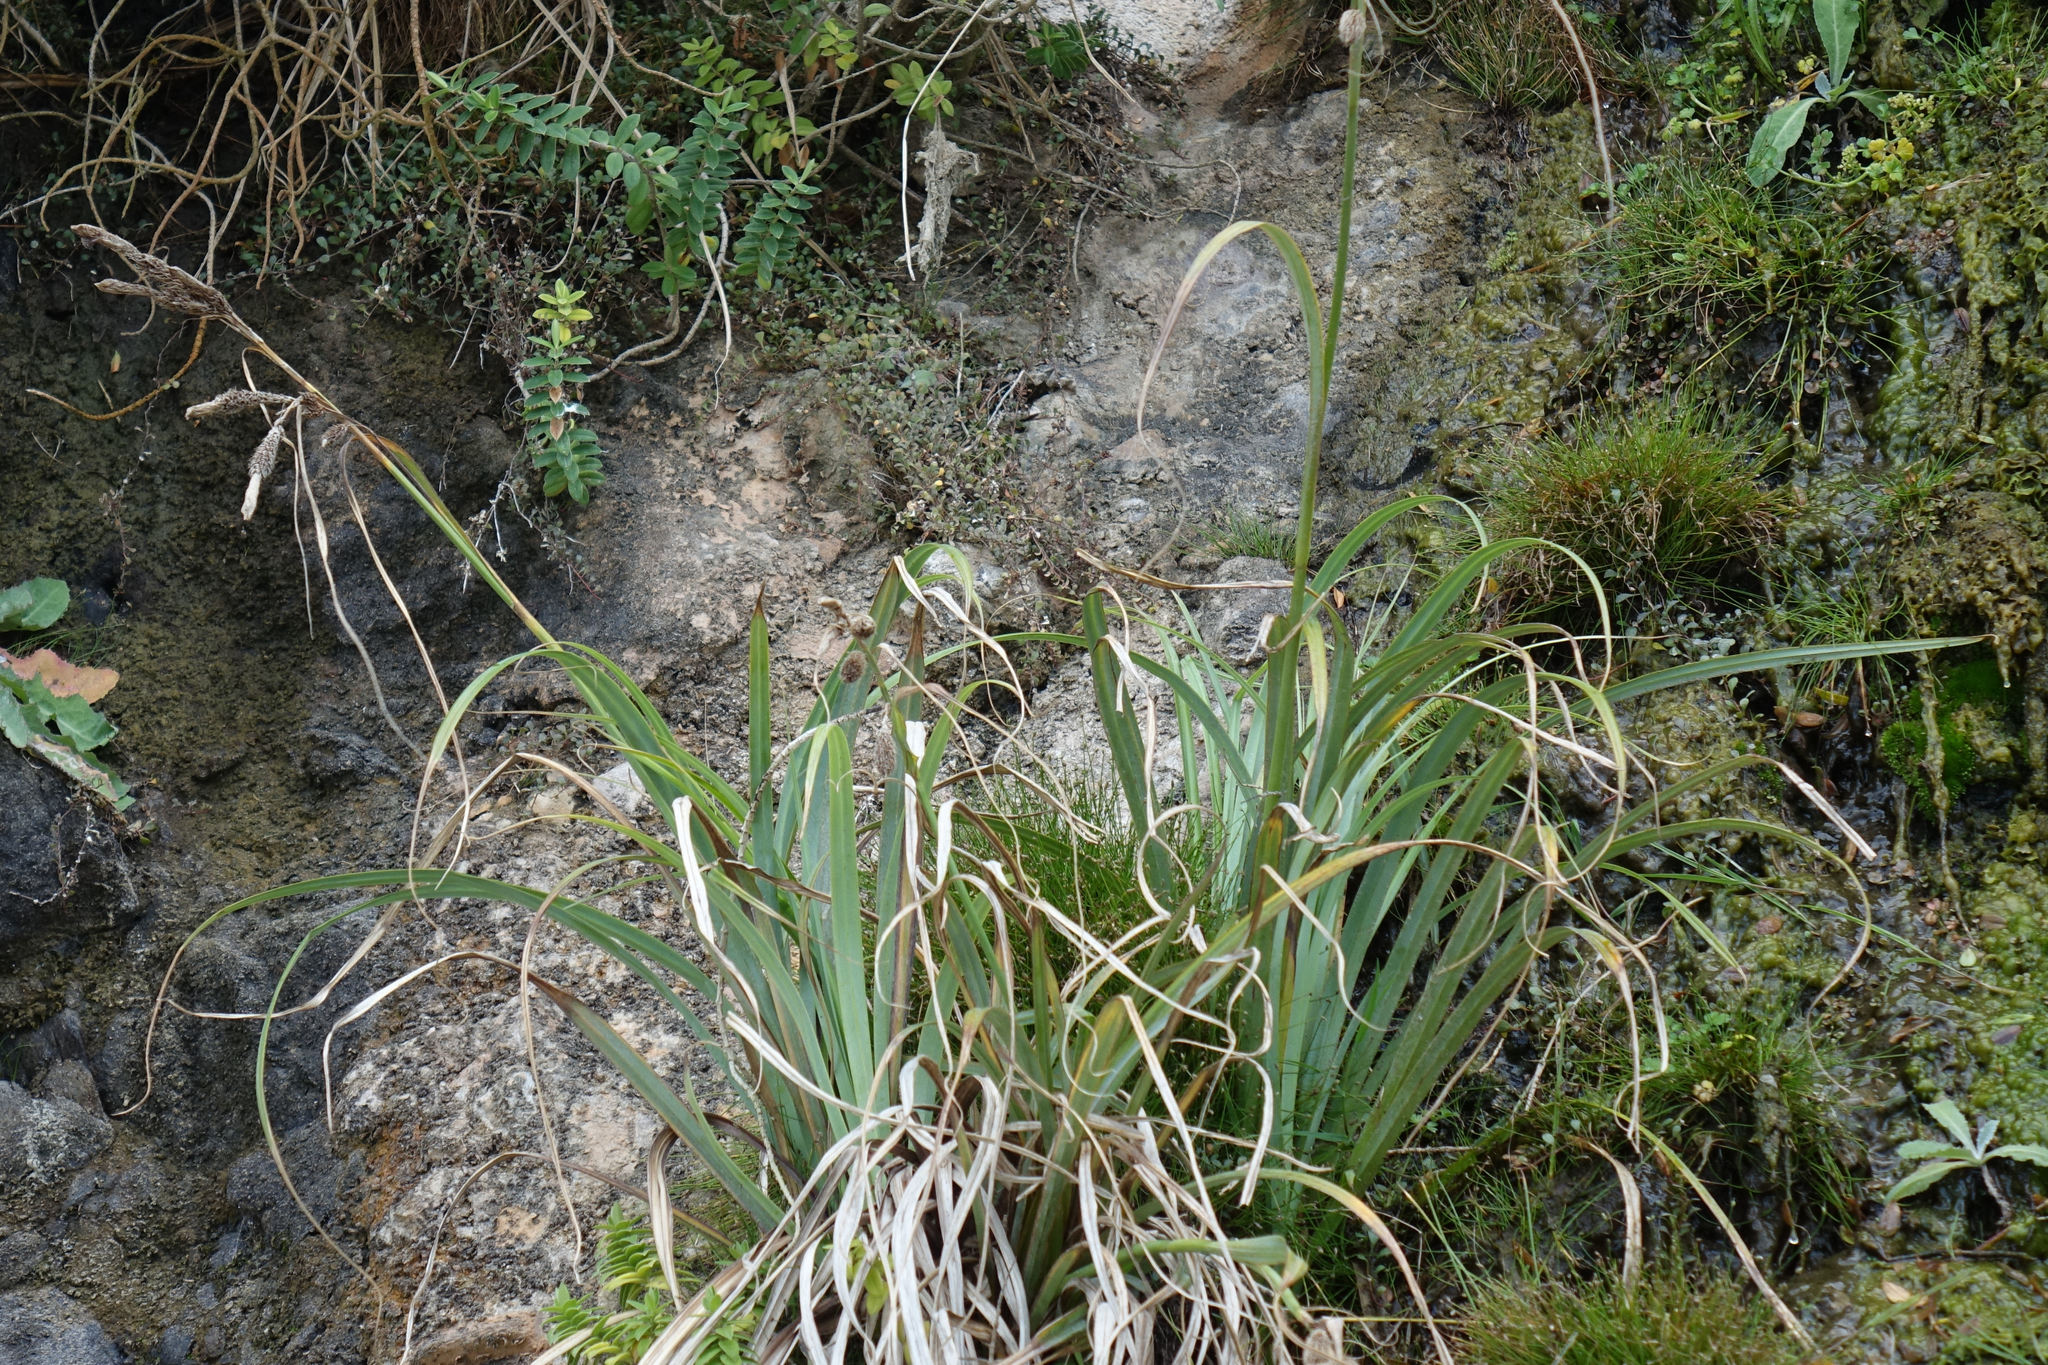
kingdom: Plantae
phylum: Tracheophyta
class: Liliopsida
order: Poales
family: Cyperaceae
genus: Carex
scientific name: Carex trifida
